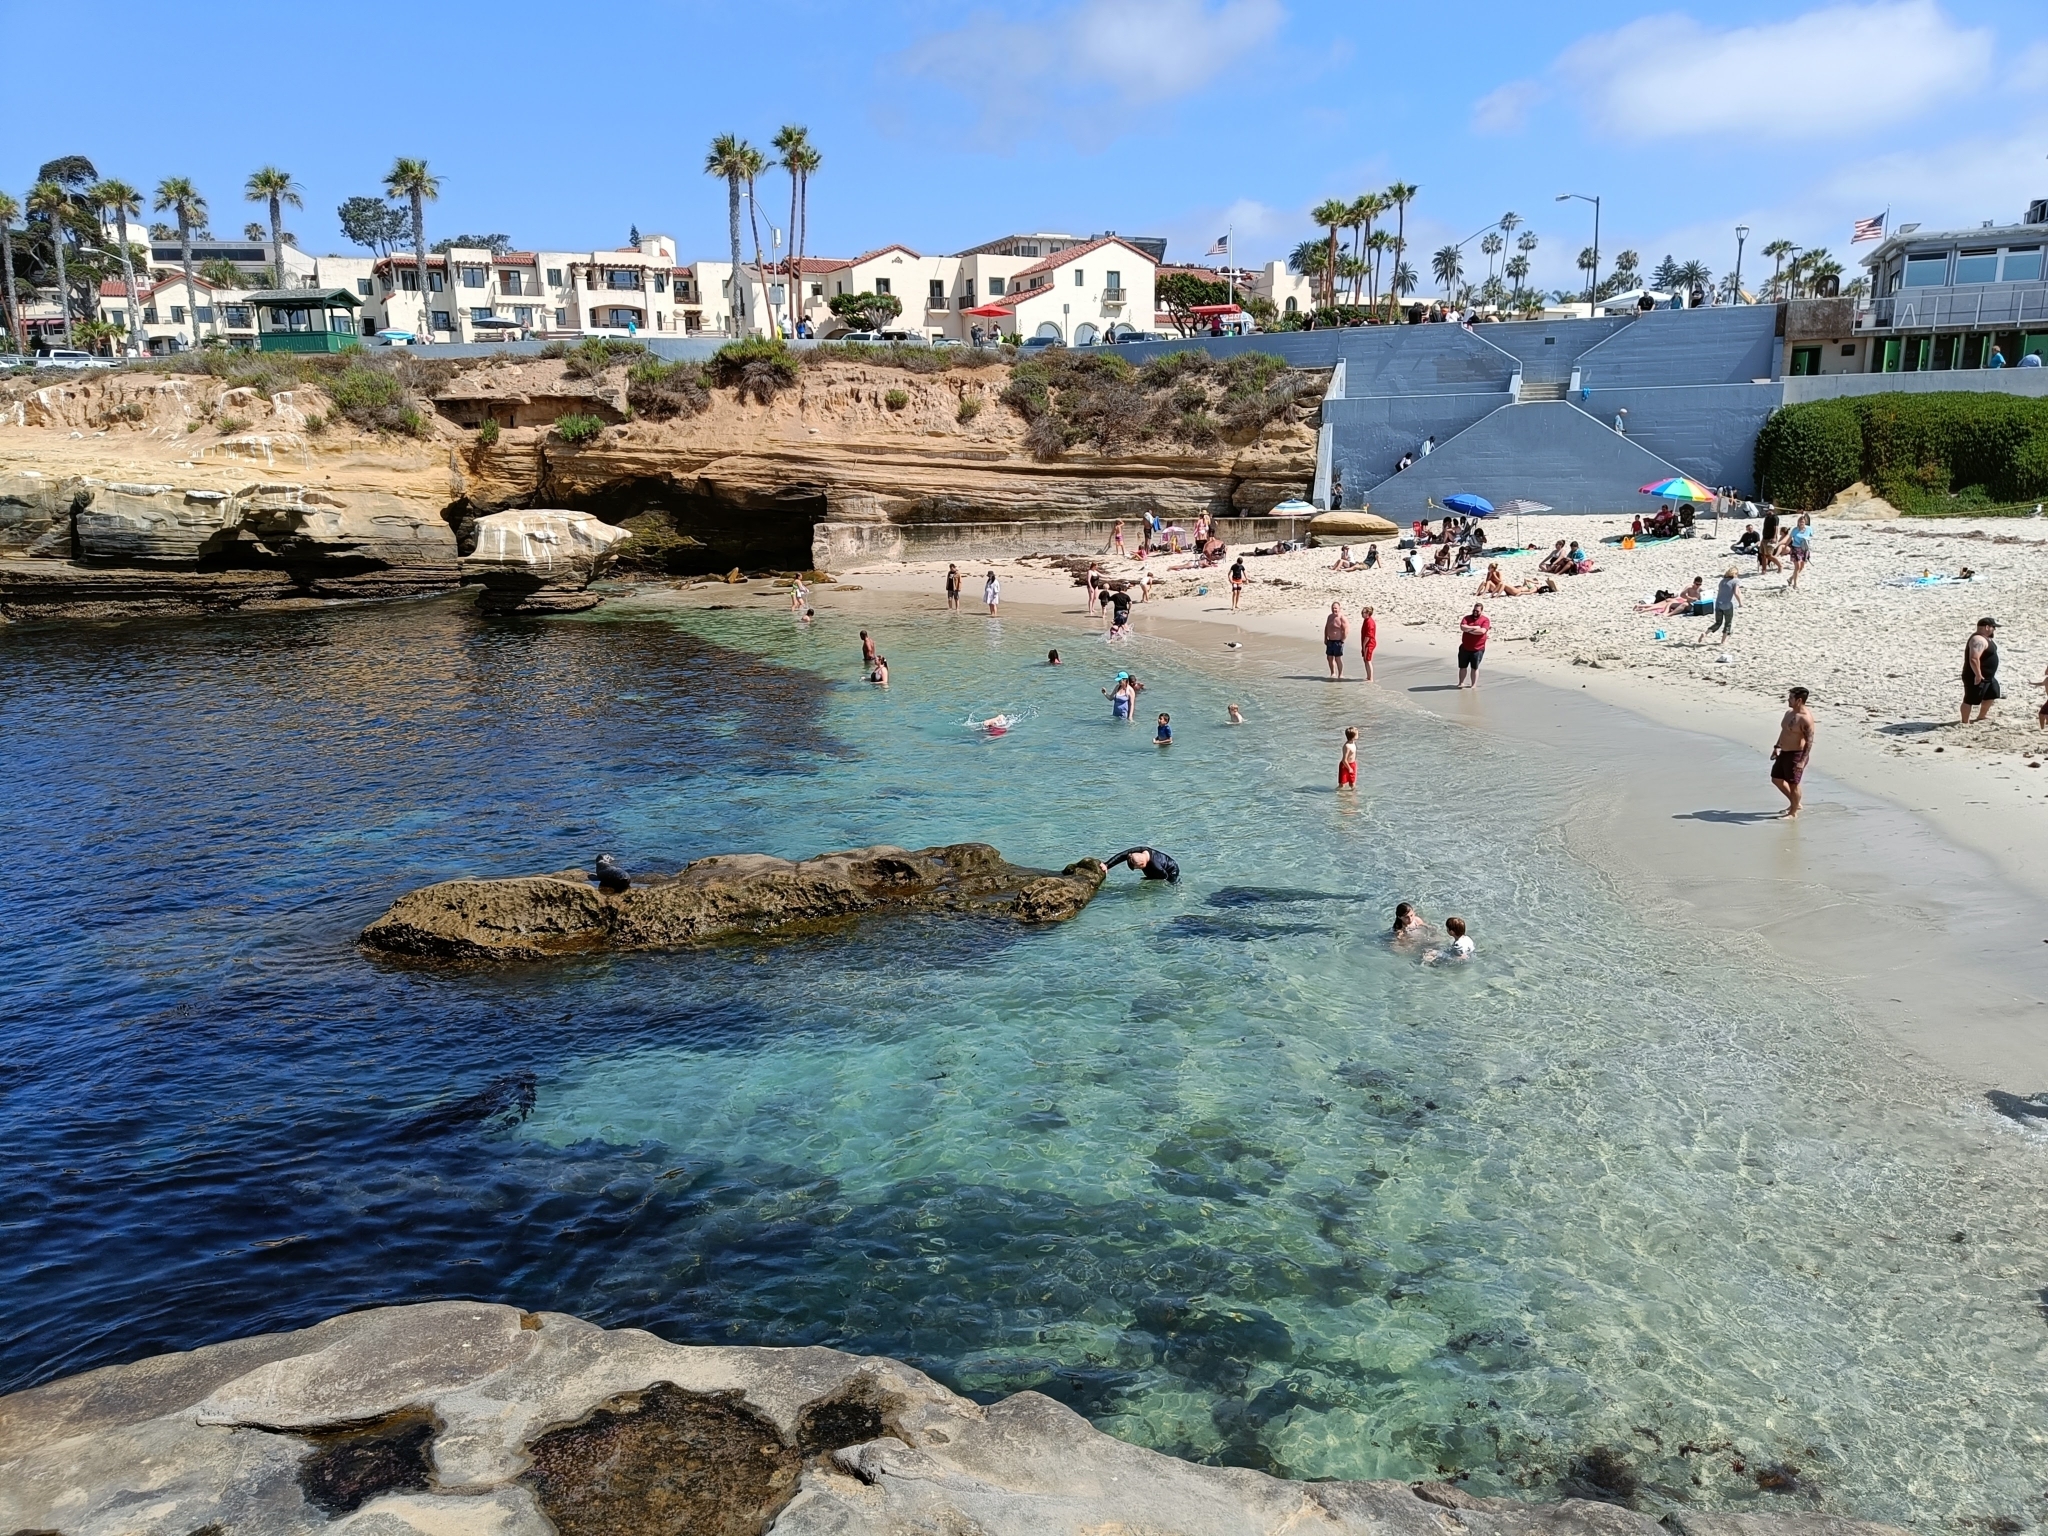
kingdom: Animalia
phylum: Chordata
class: Mammalia
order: Carnivora
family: Phocidae
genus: Phoca
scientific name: Phoca vitulina
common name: Harbor seal
